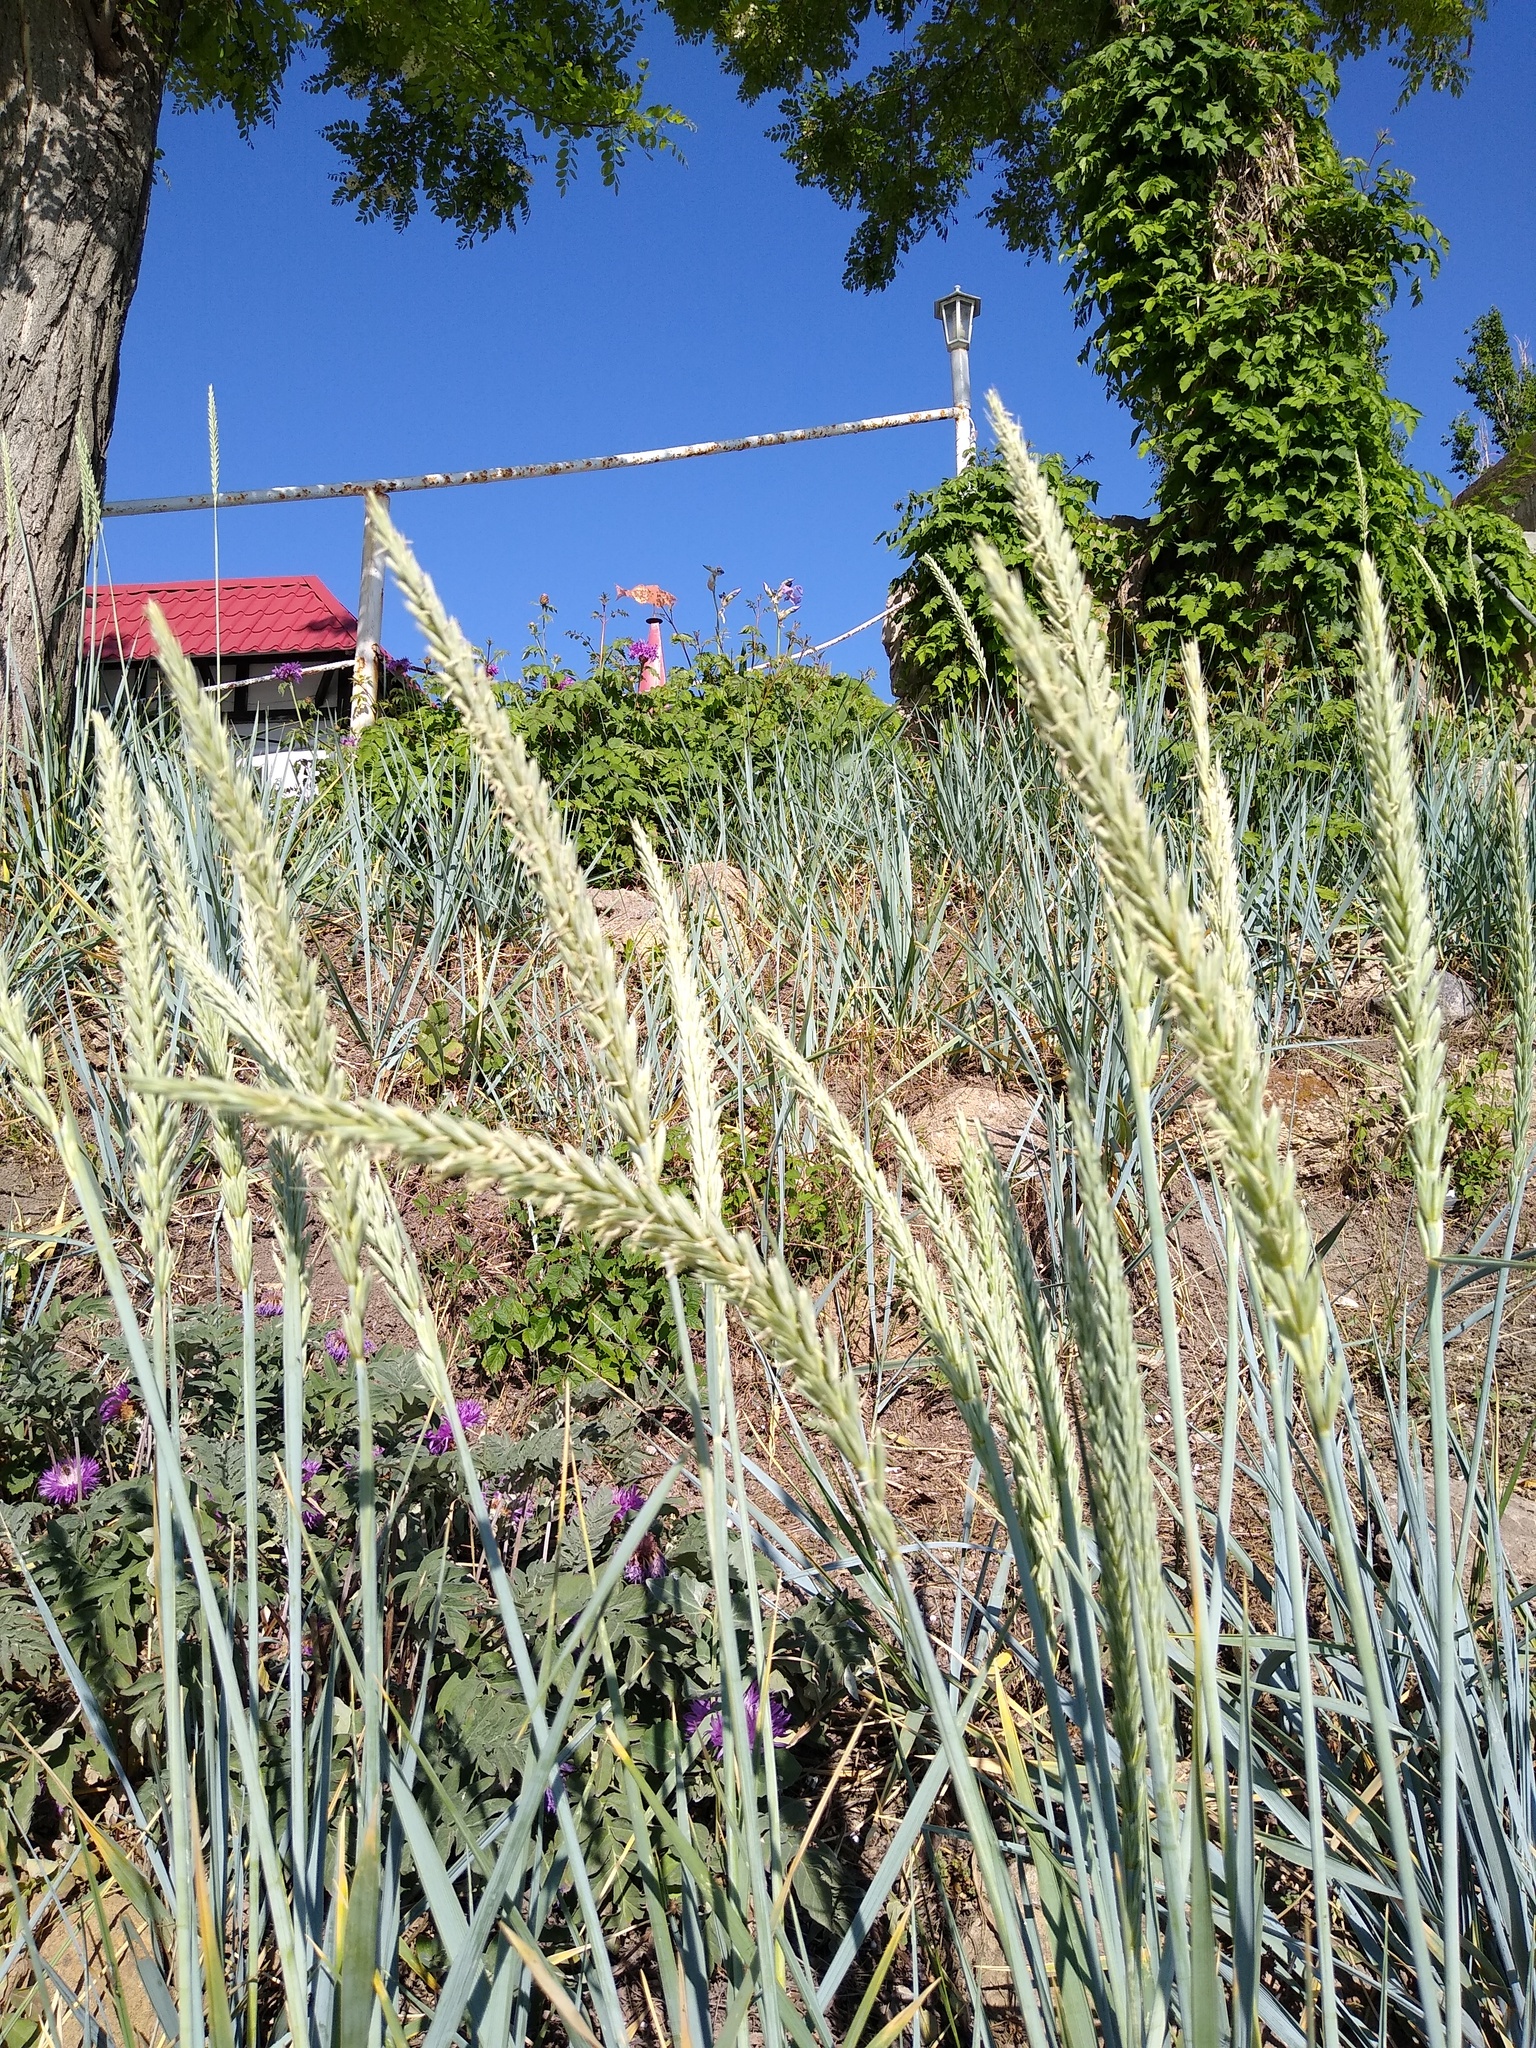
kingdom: Plantae
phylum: Tracheophyta
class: Liliopsida
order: Poales
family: Poaceae
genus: Leymus
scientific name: Leymus racemosus
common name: Mammoth wildrye
